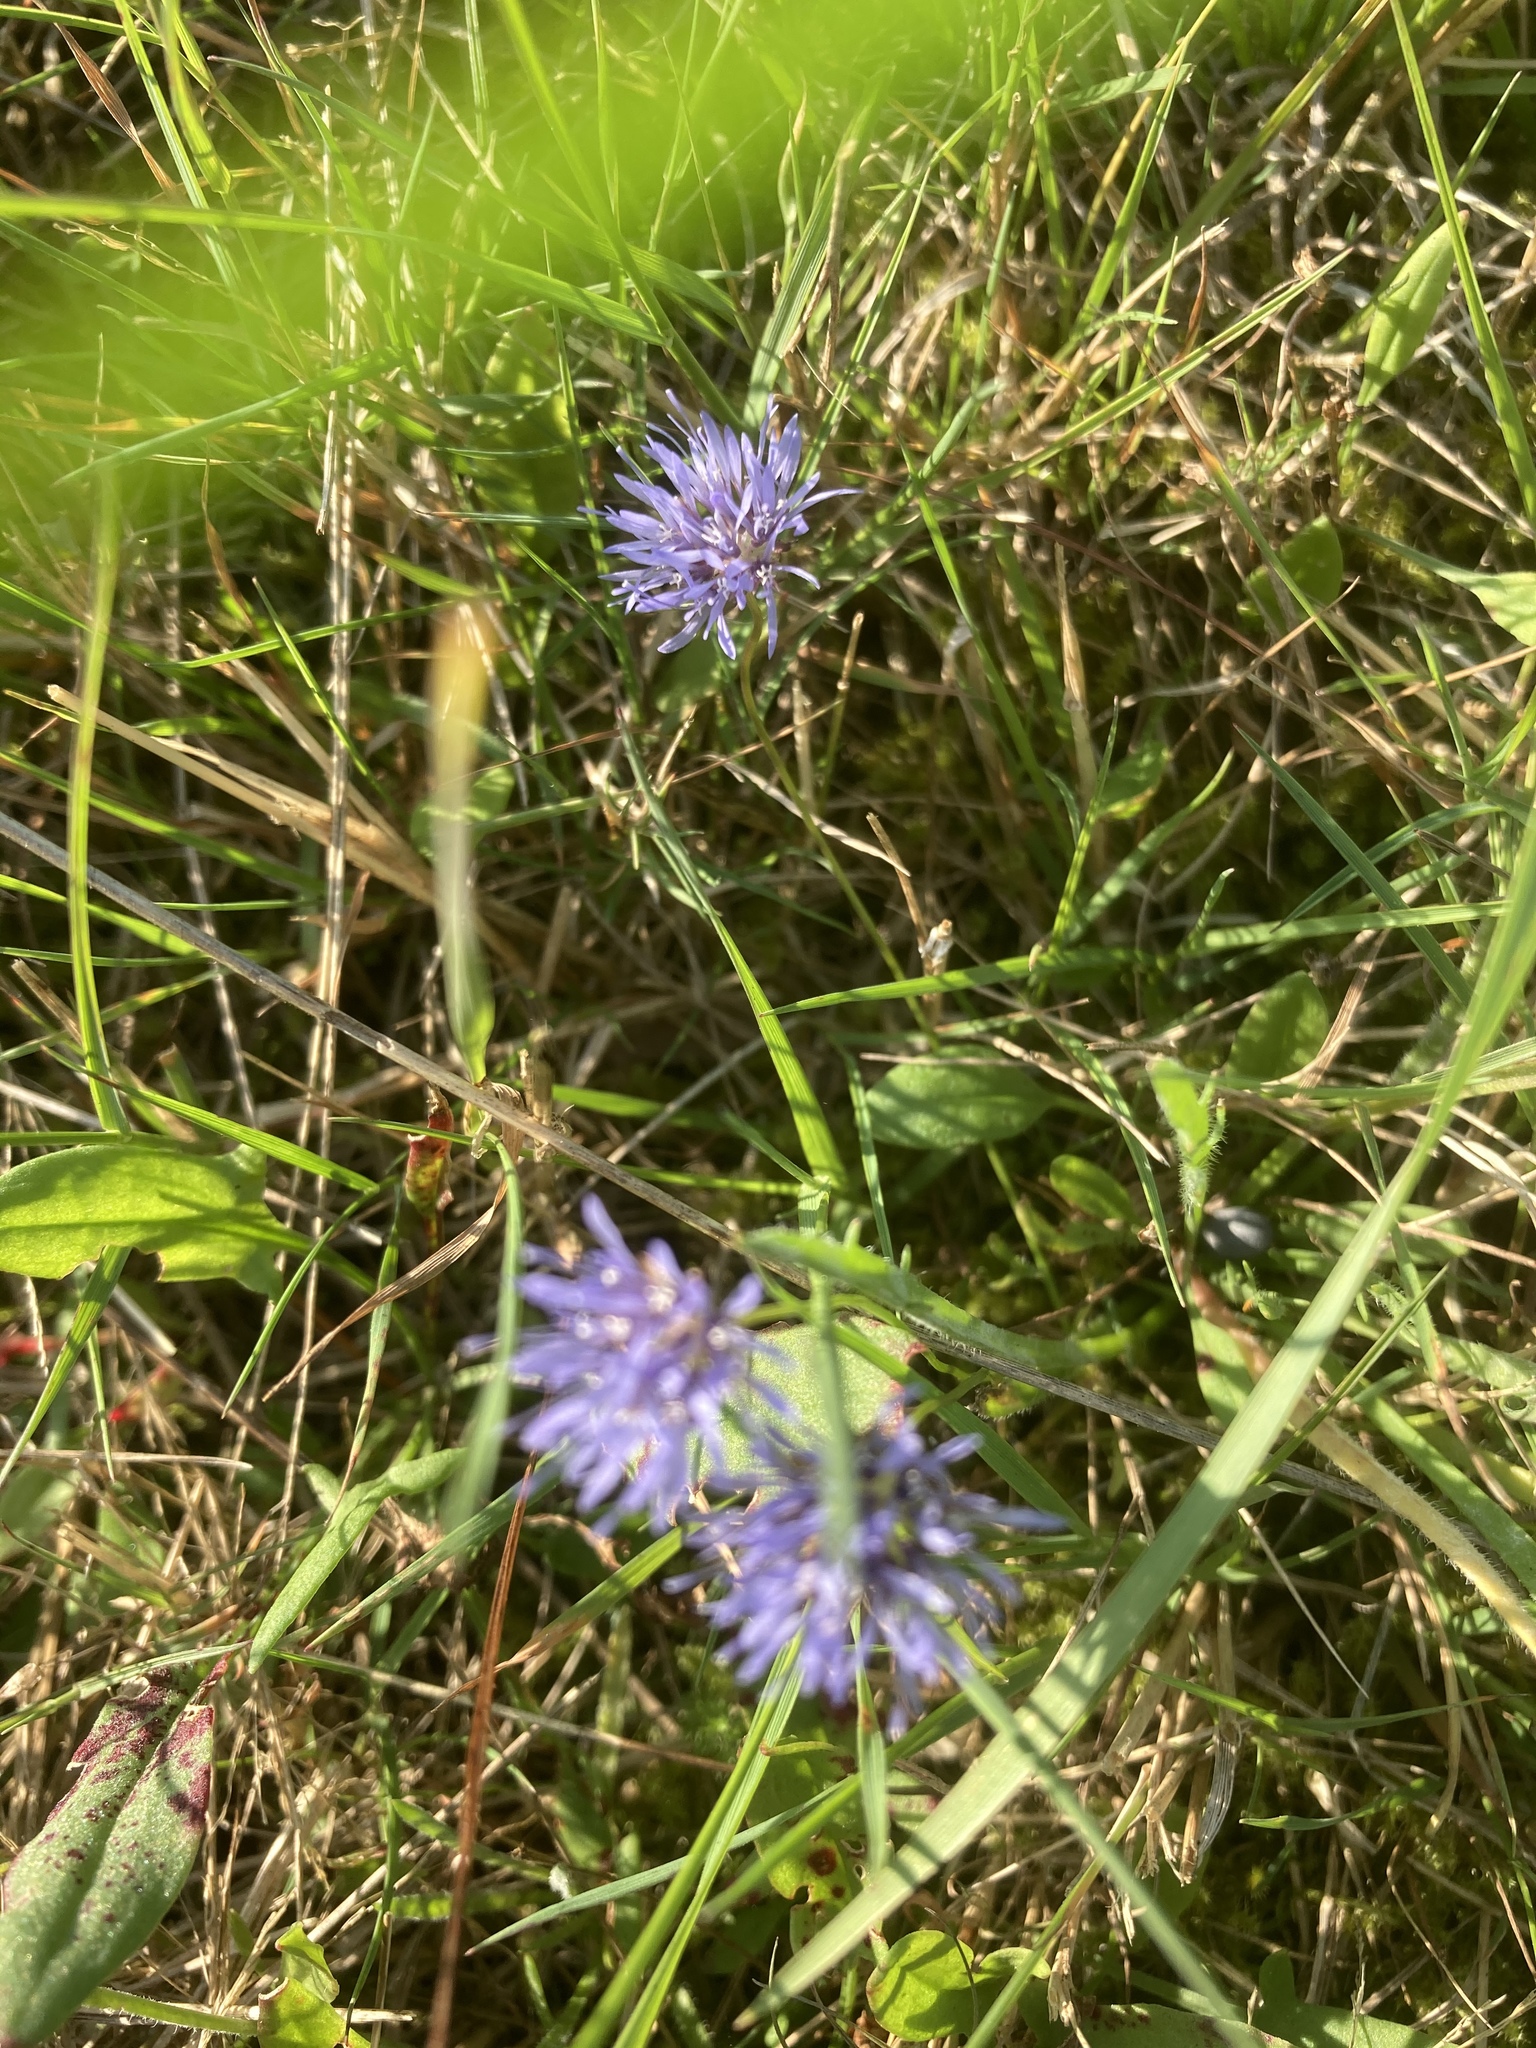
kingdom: Plantae
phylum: Tracheophyta
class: Magnoliopsida
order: Asterales
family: Campanulaceae
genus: Jasione
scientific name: Jasione montana
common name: Sheep's-bit
